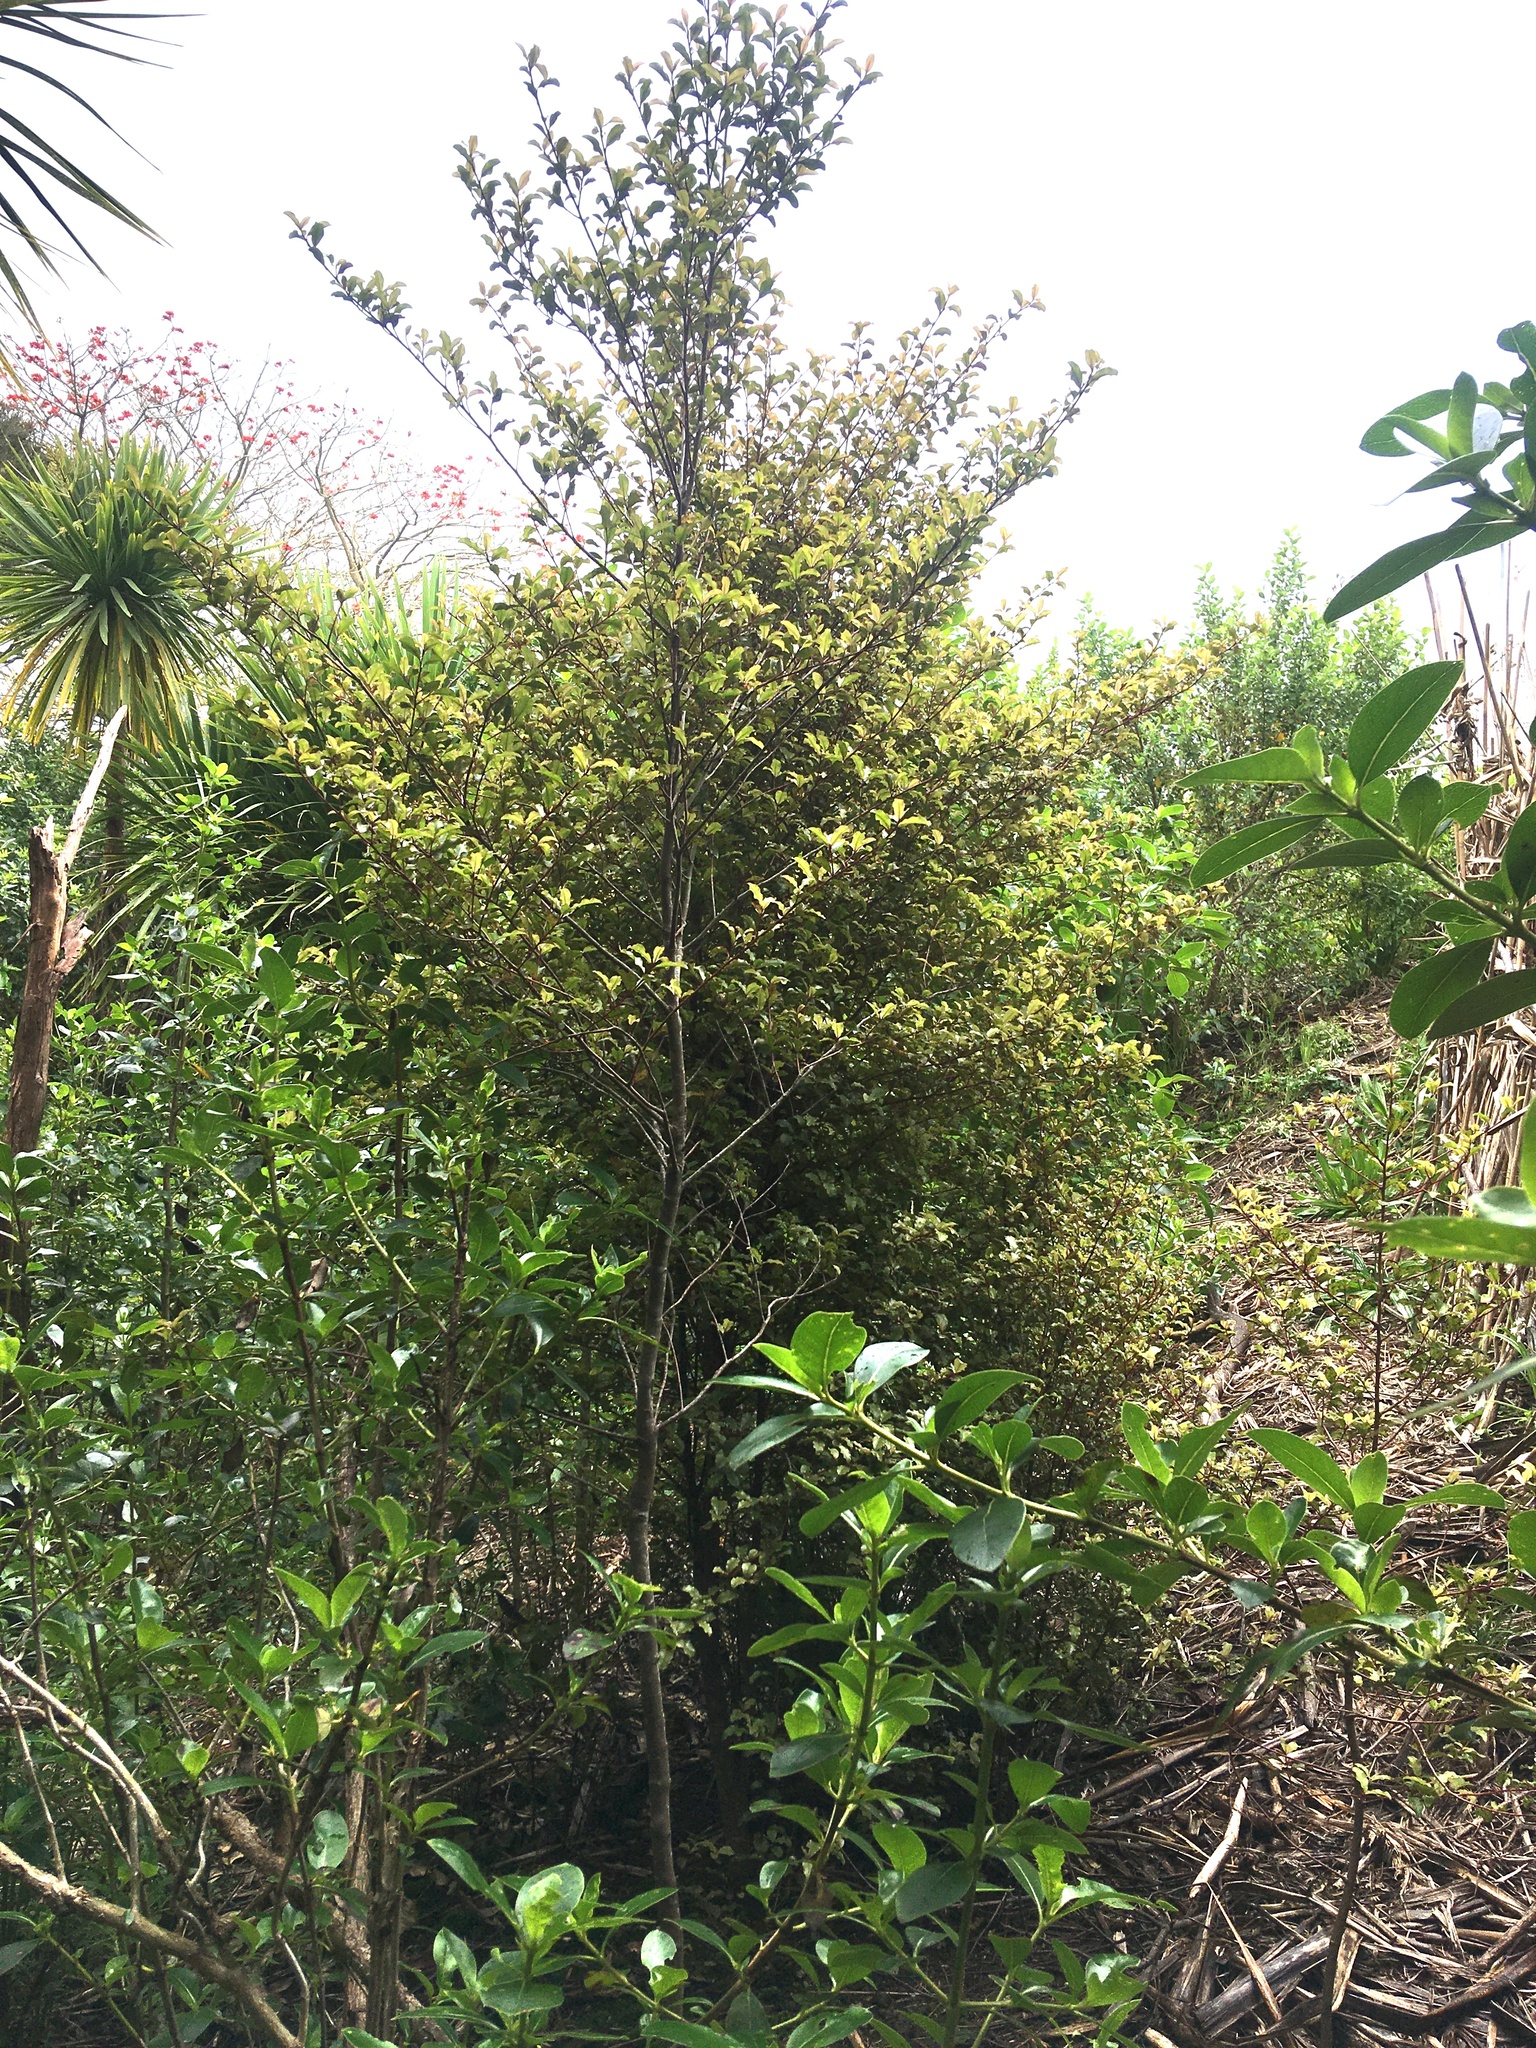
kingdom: Plantae
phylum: Tracheophyta
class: Magnoliopsida
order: Ericales
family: Primulaceae
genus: Myrsine
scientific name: Myrsine australis
